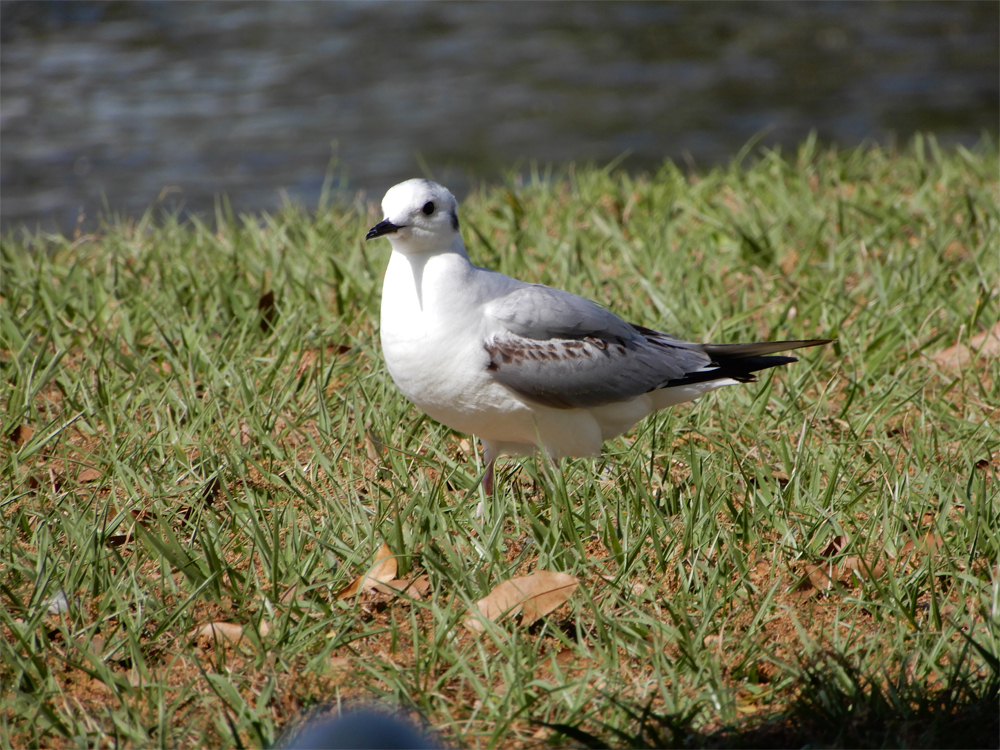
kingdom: Animalia
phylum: Chordata
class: Aves
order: Charadriiformes
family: Laridae
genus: Chroicocephalus
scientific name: Chroicocephalus philadelphia
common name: Bonaparte's gull
